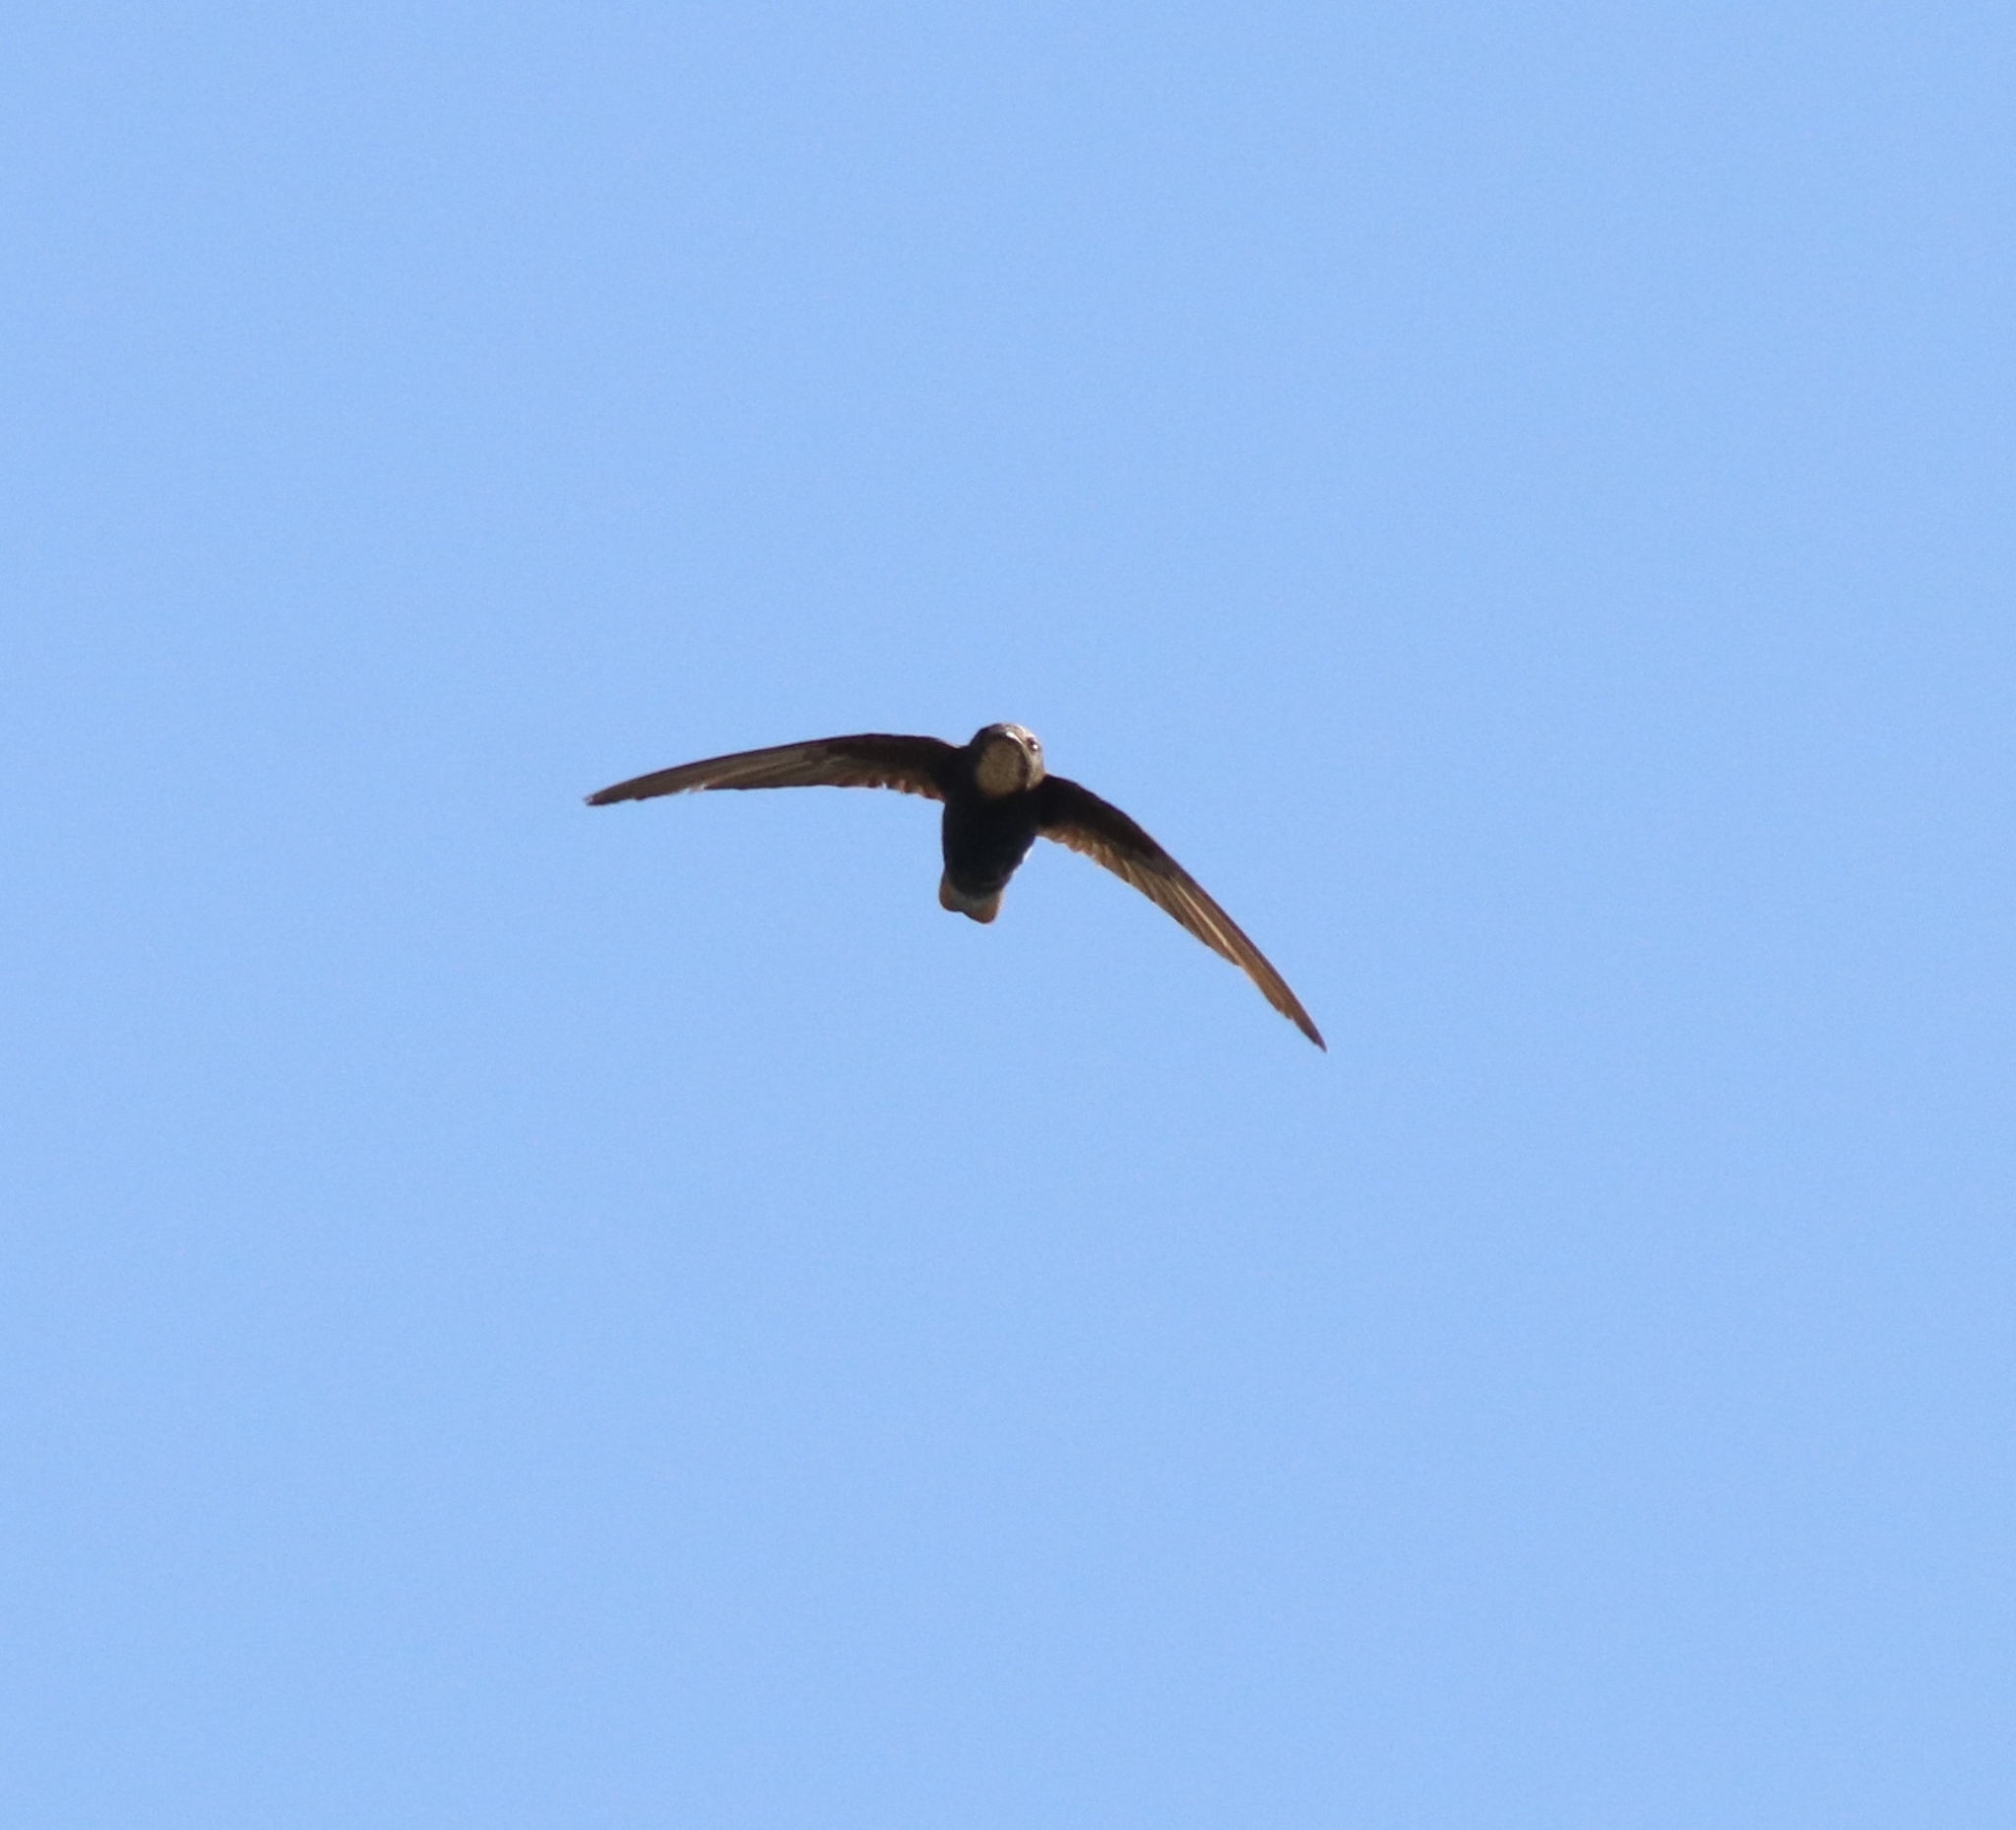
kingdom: Animalia
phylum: Chordata
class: Aves
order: Apodiformes
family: Apodidae
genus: Apus
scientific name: Apus affinis
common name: Little swift
